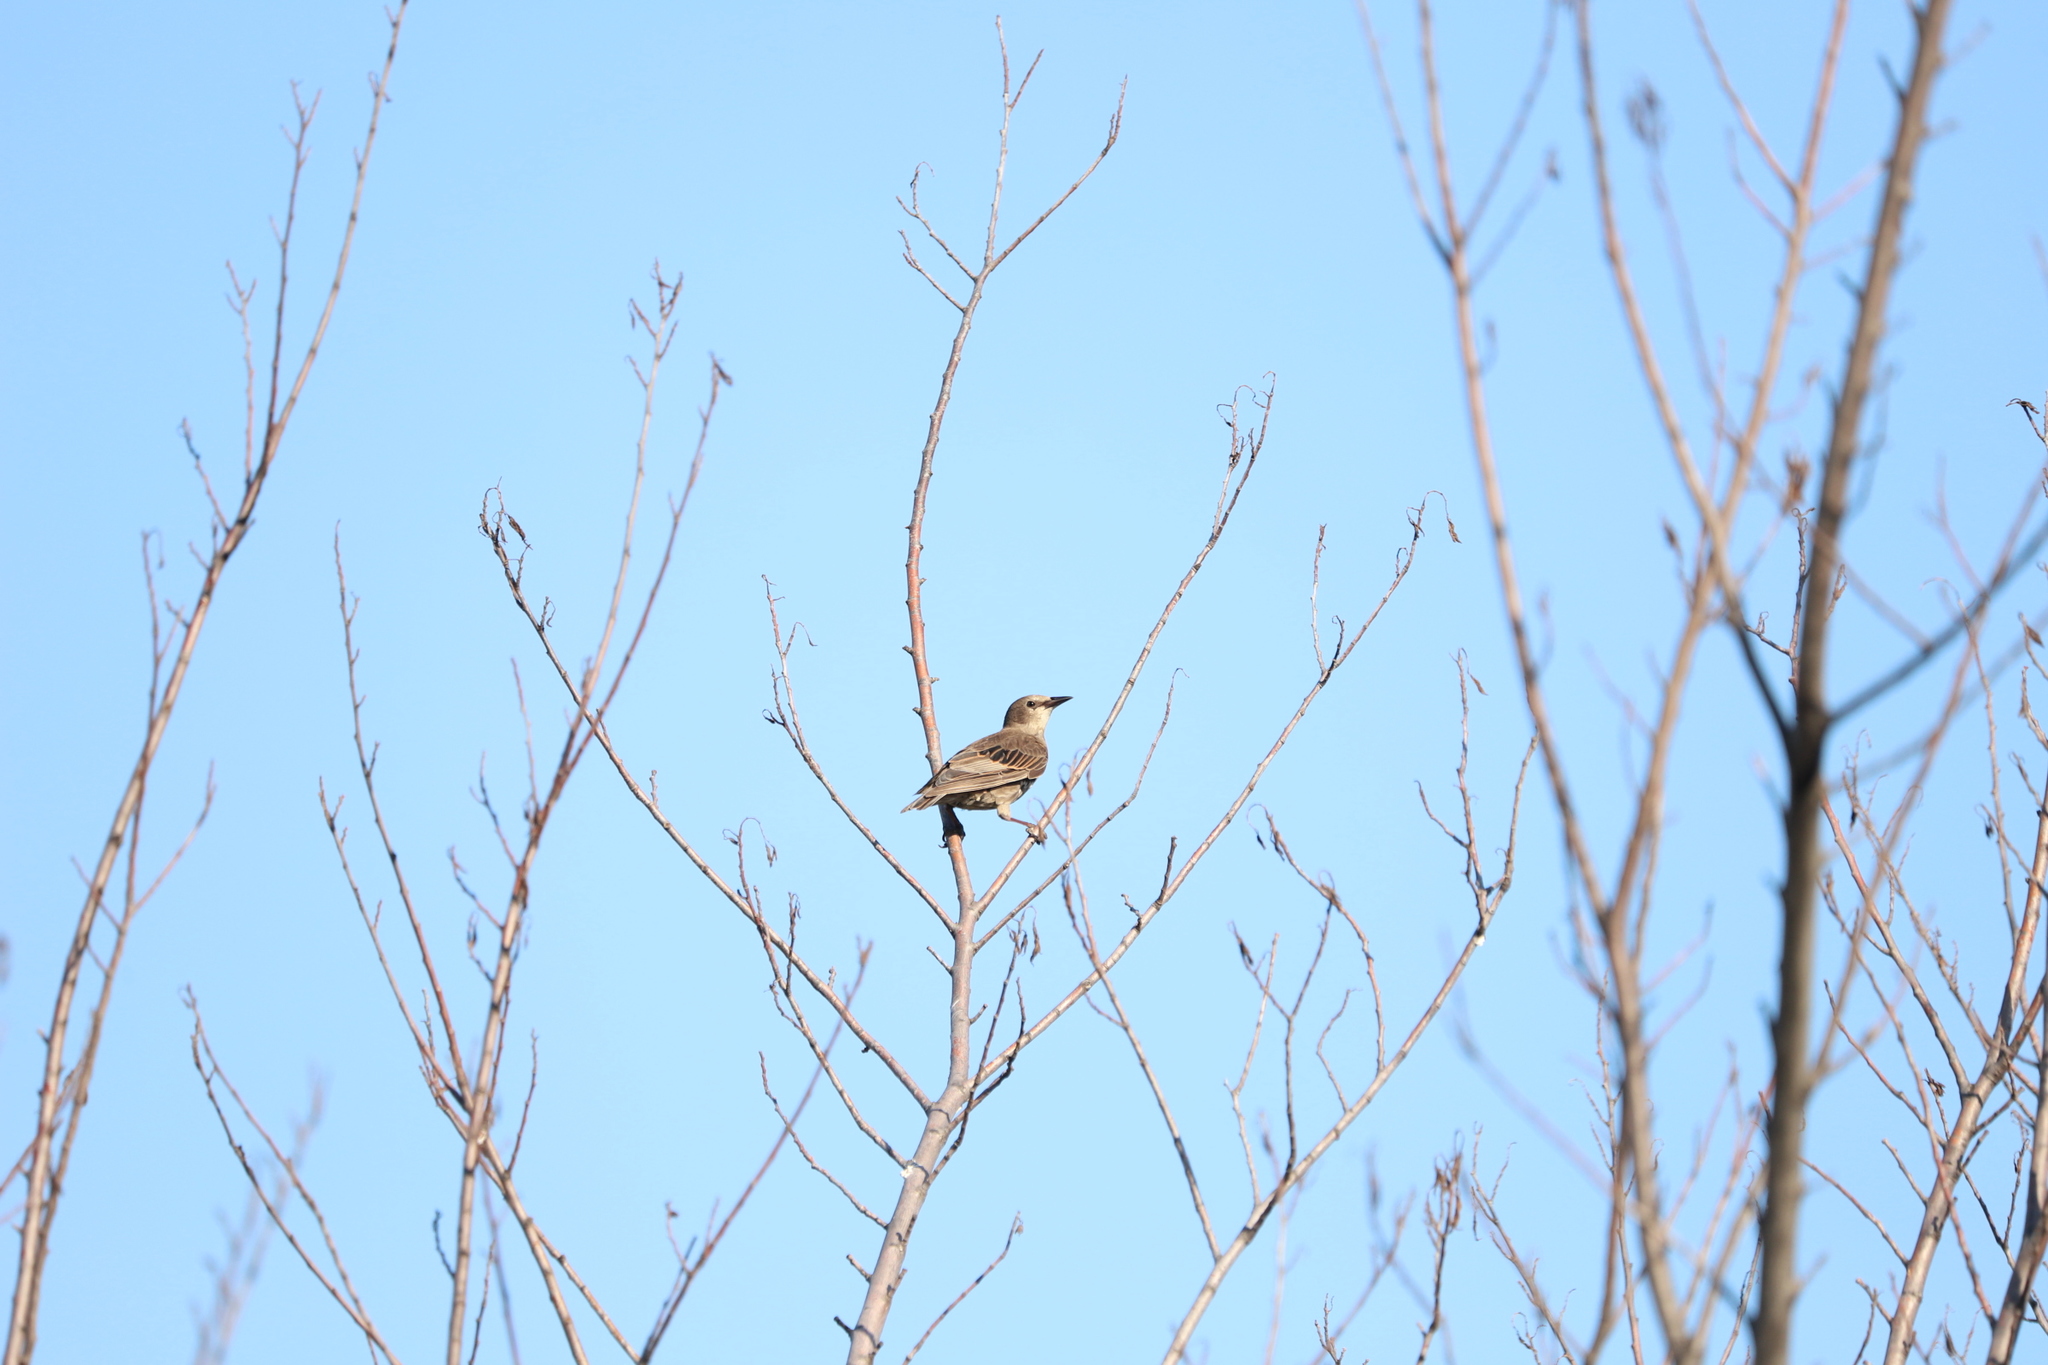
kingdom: Animalia
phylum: Chordata
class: Aves
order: Passeriformes
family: Sturnidae
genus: Sturnus
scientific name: Sturnus vulgaris
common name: Common starling
